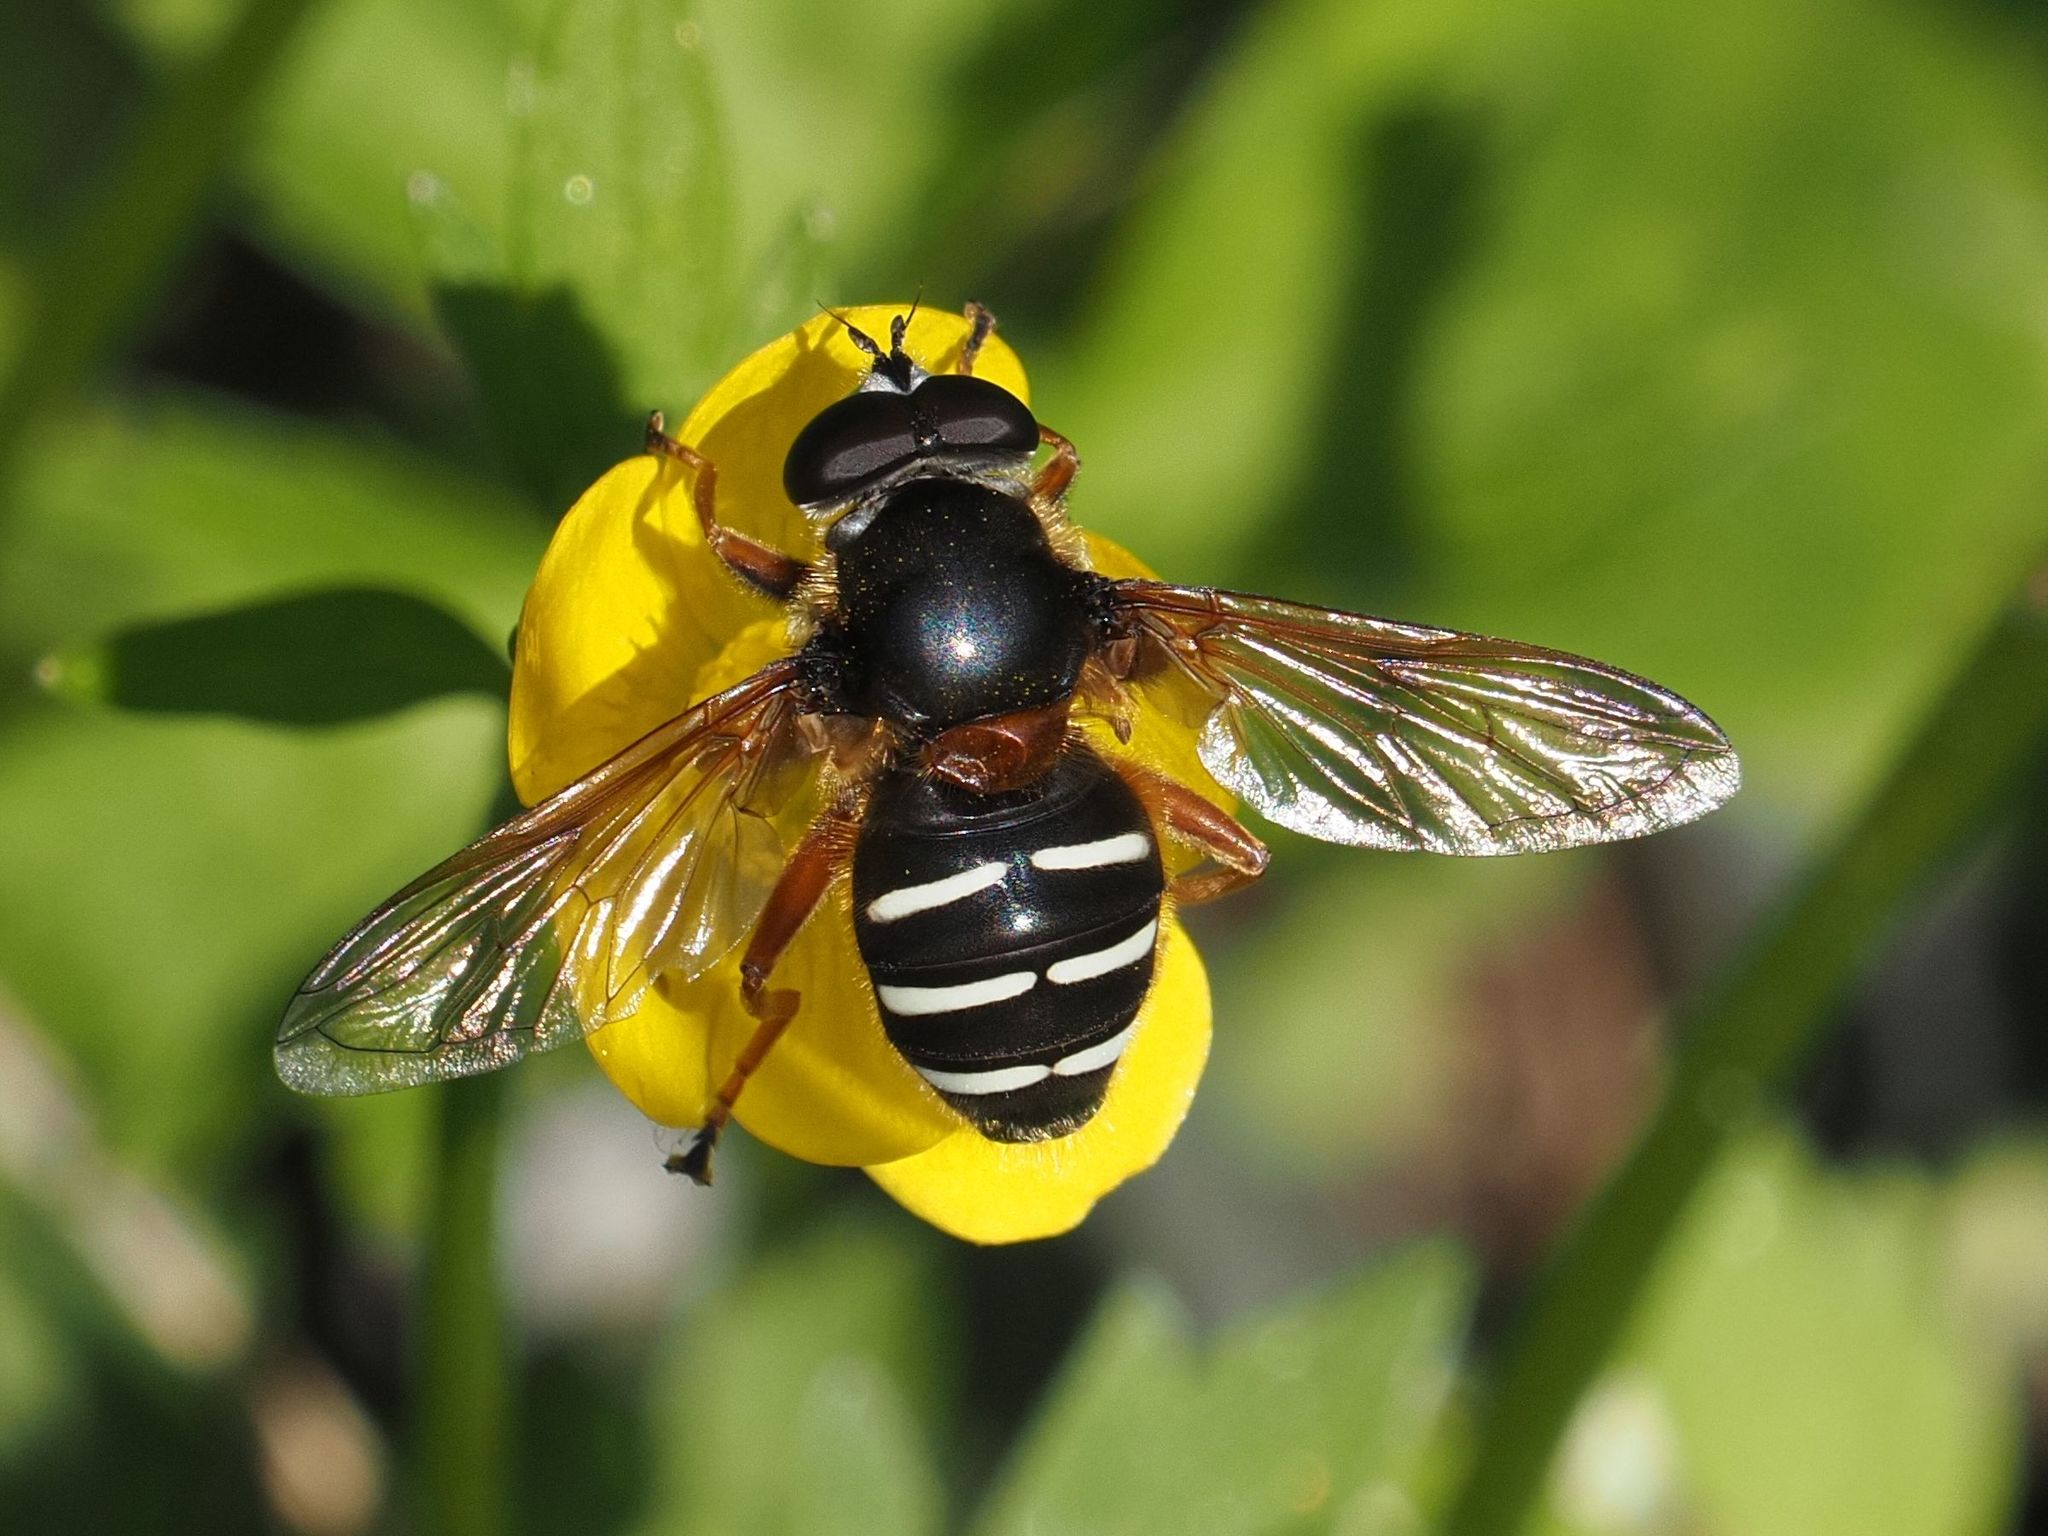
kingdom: Animalia
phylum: Arthropoda
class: Insecta
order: Diptera
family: Syrphidae
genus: Sericomyia
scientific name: Sericomyia lappona
